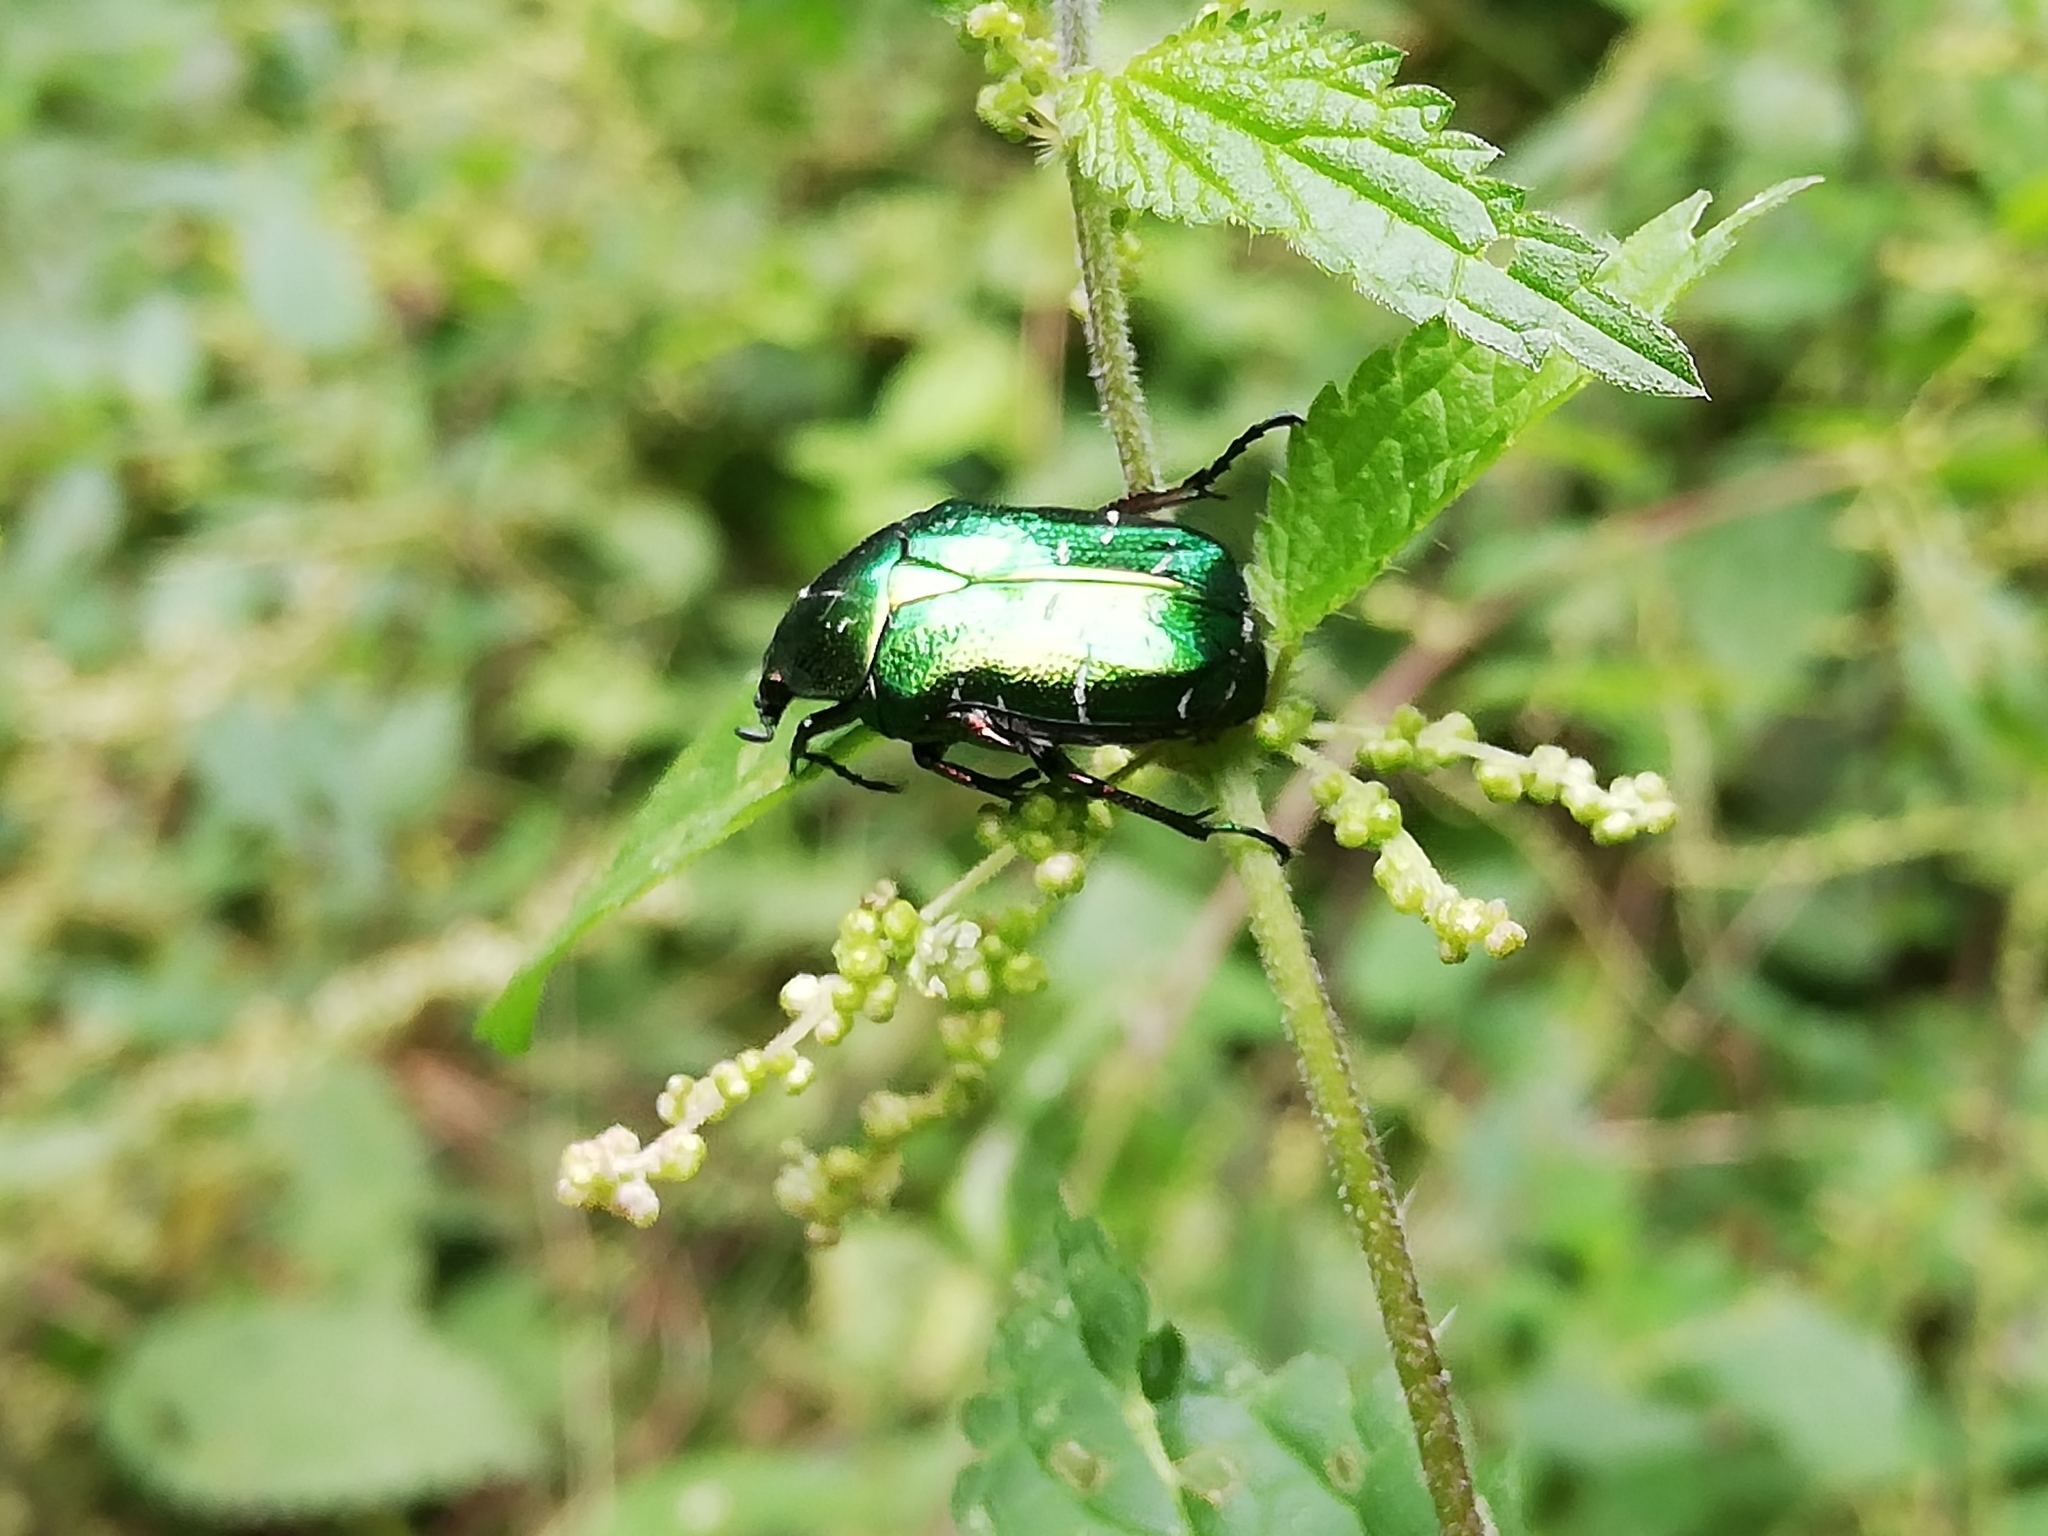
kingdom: Animalia
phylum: Arthropoda
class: Insecta
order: Coleoptera
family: Scarabaeidae
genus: Cetonia
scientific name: Cetonia aurata
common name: Rose chafer
